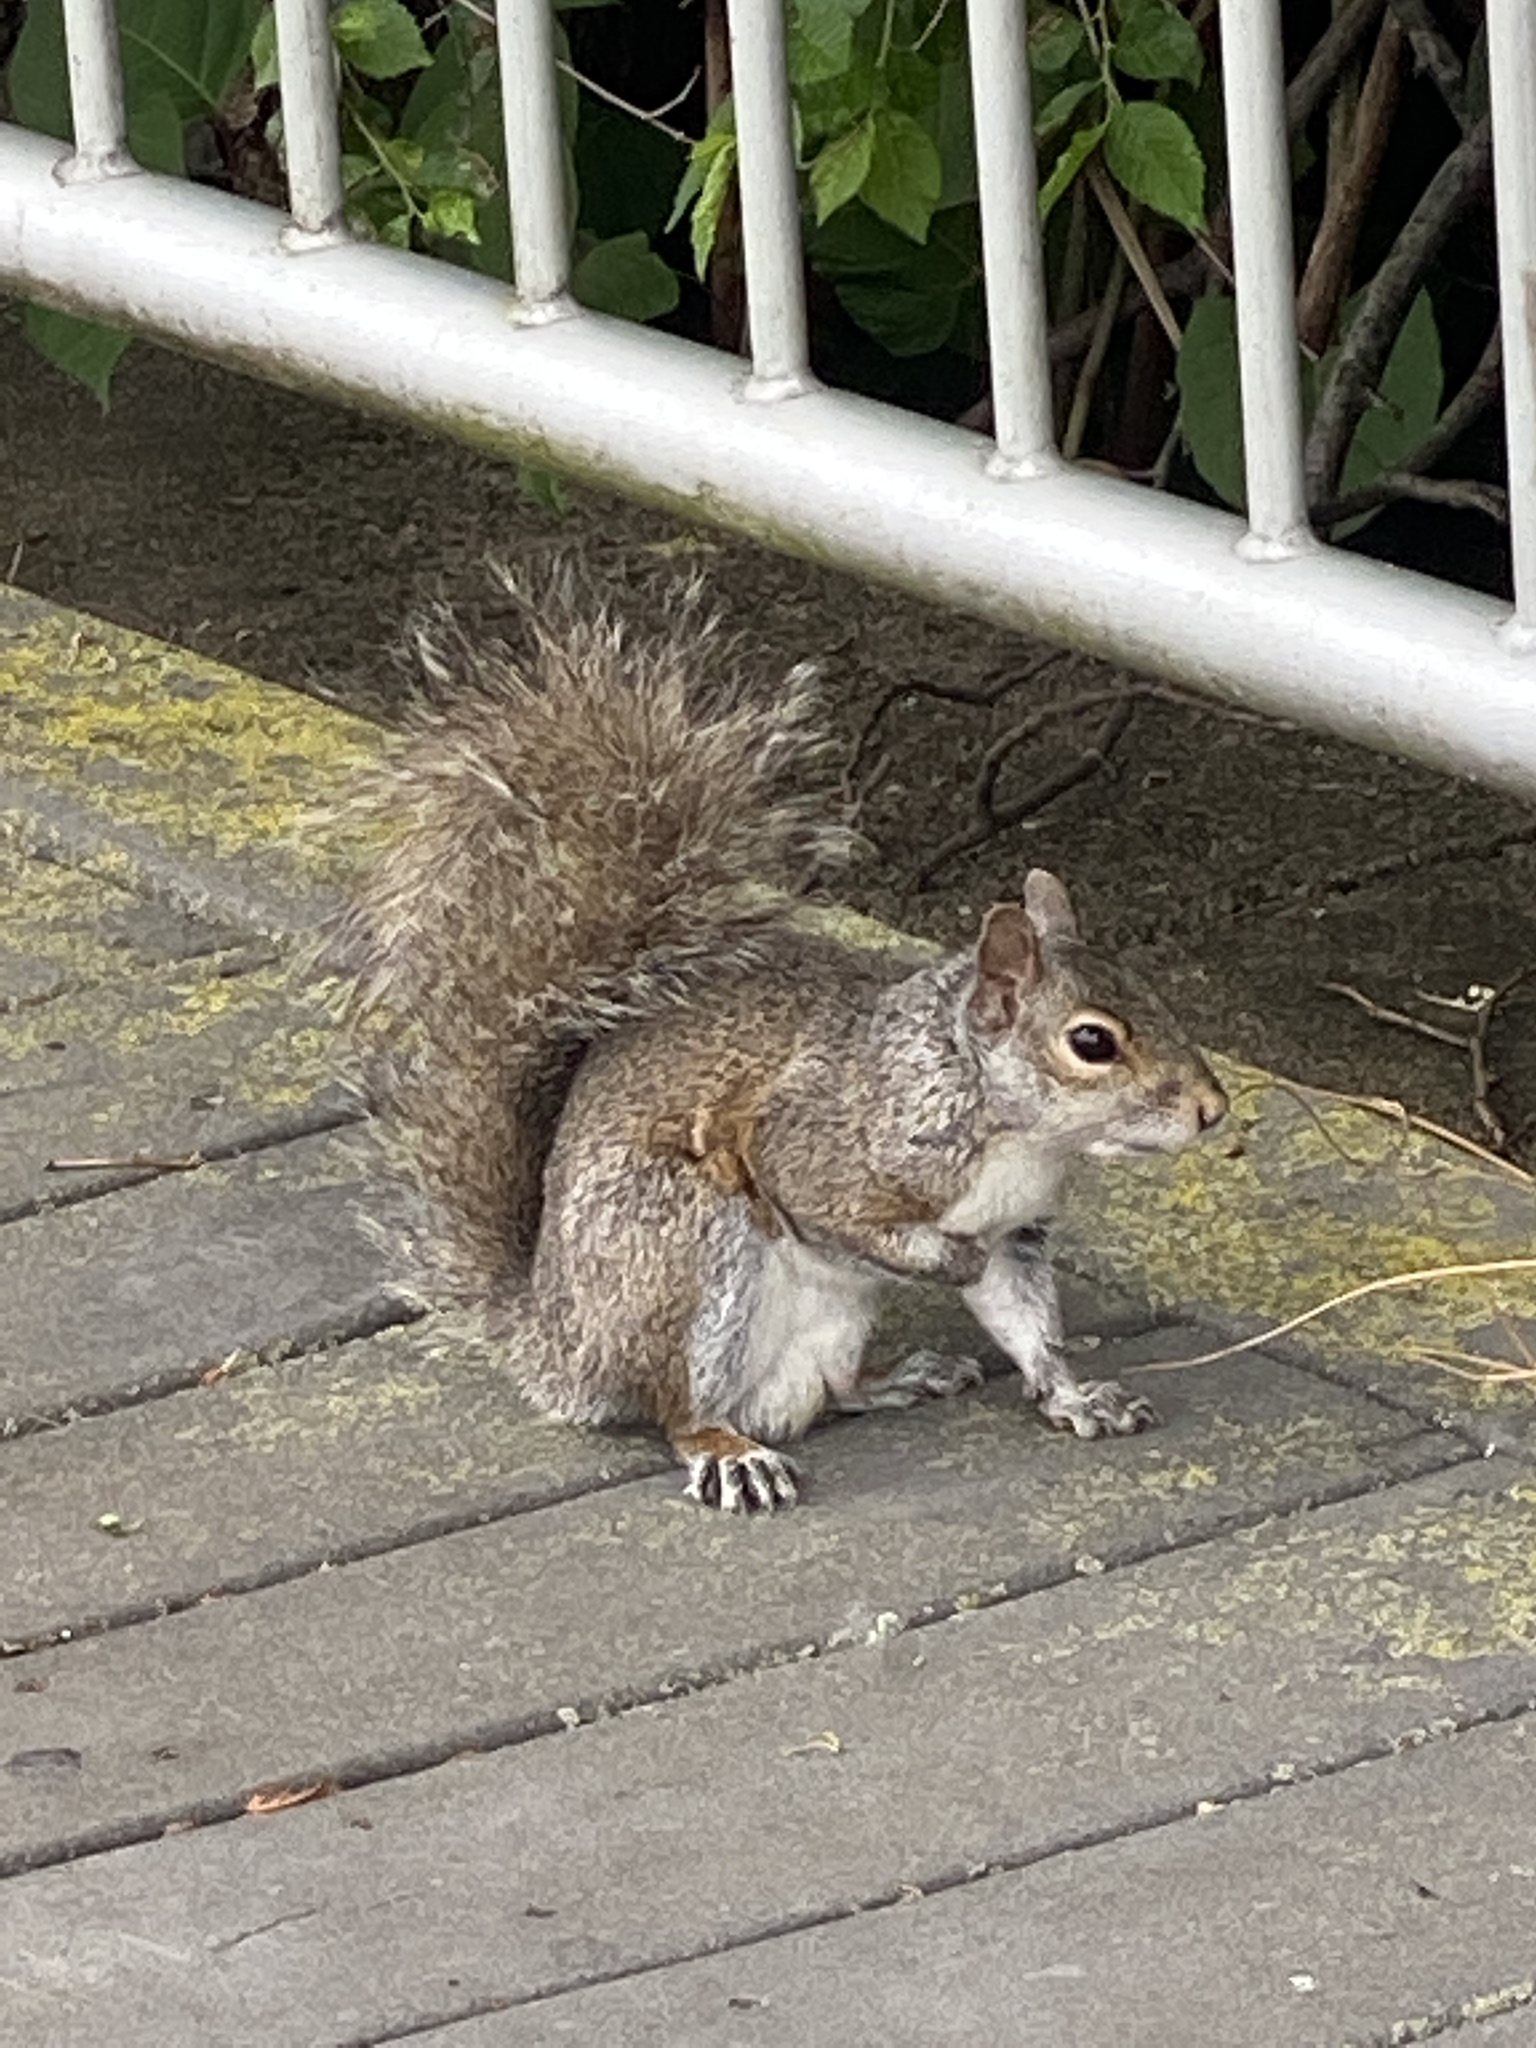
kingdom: Animalia
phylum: Chordata
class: Mammalia
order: Rodentia
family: Sciuridae
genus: Sciurus
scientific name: Sciurus carolinensis
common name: Eastern gray squirrel
